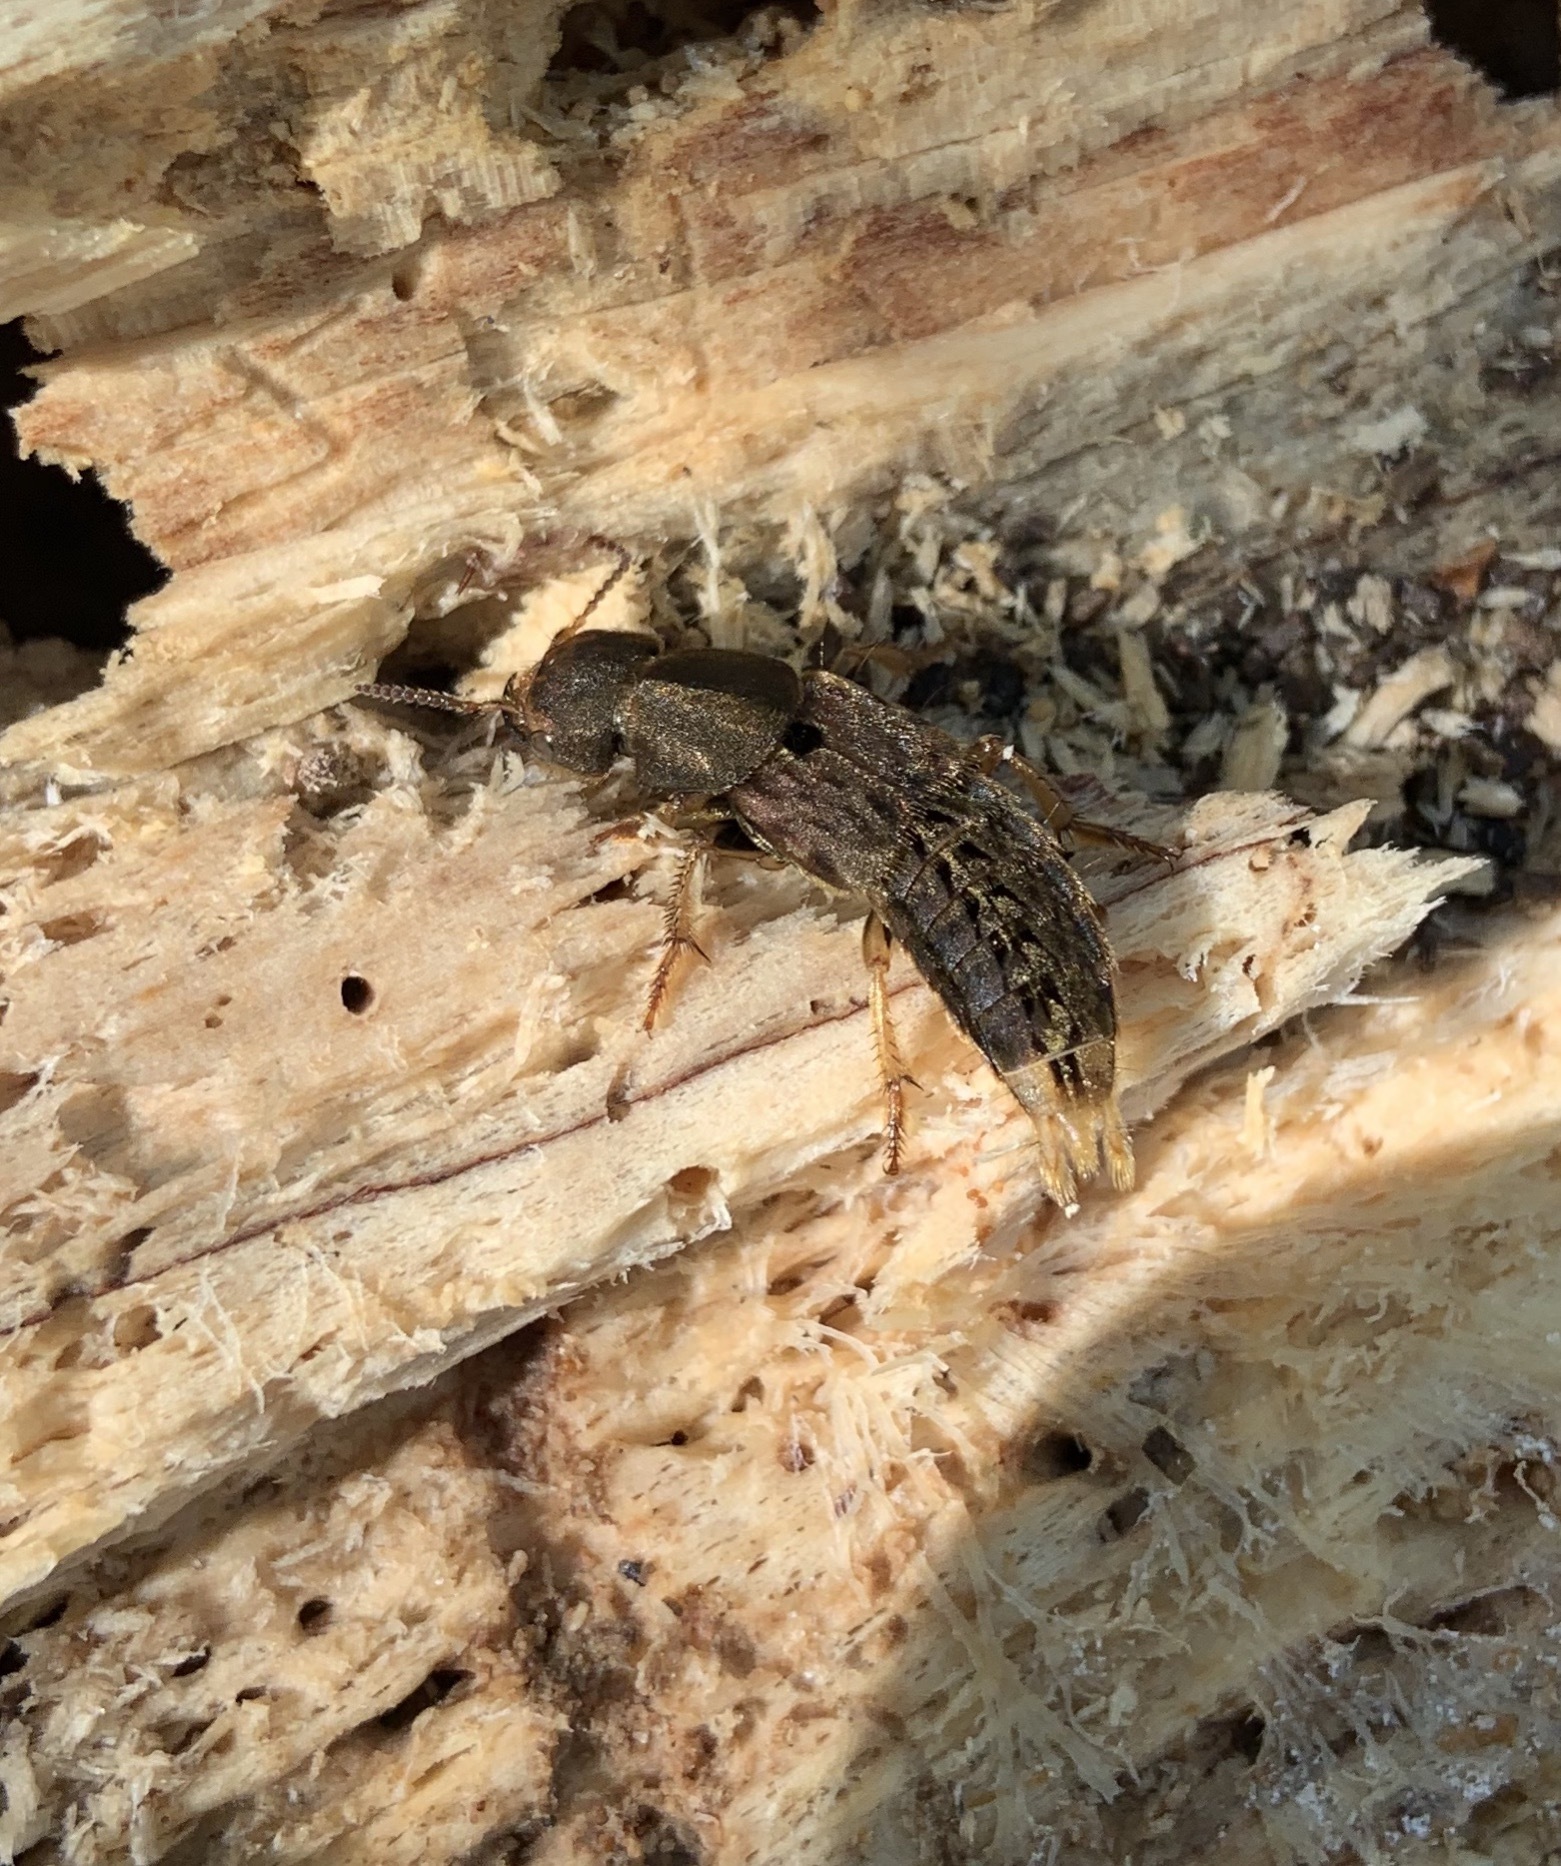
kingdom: Animalia
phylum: Arthropoda
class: Insecta
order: Coleoptera
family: Staphylinidae
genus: Platydracus
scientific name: Platydracus maculosus
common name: Brown rove beetle
